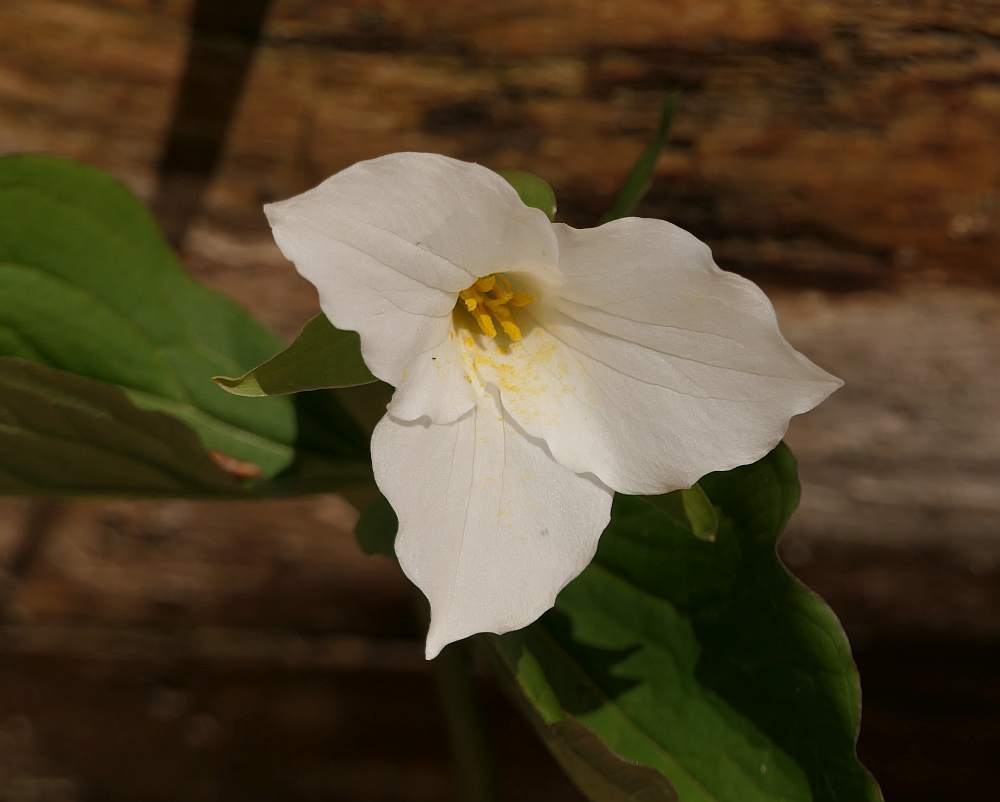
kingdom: Plantae
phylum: Tracheophyta
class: Liliopsida
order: Liliales
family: Melanthiaceae
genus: Trillium
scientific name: Trillium grandiflorum
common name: Great white trillium
